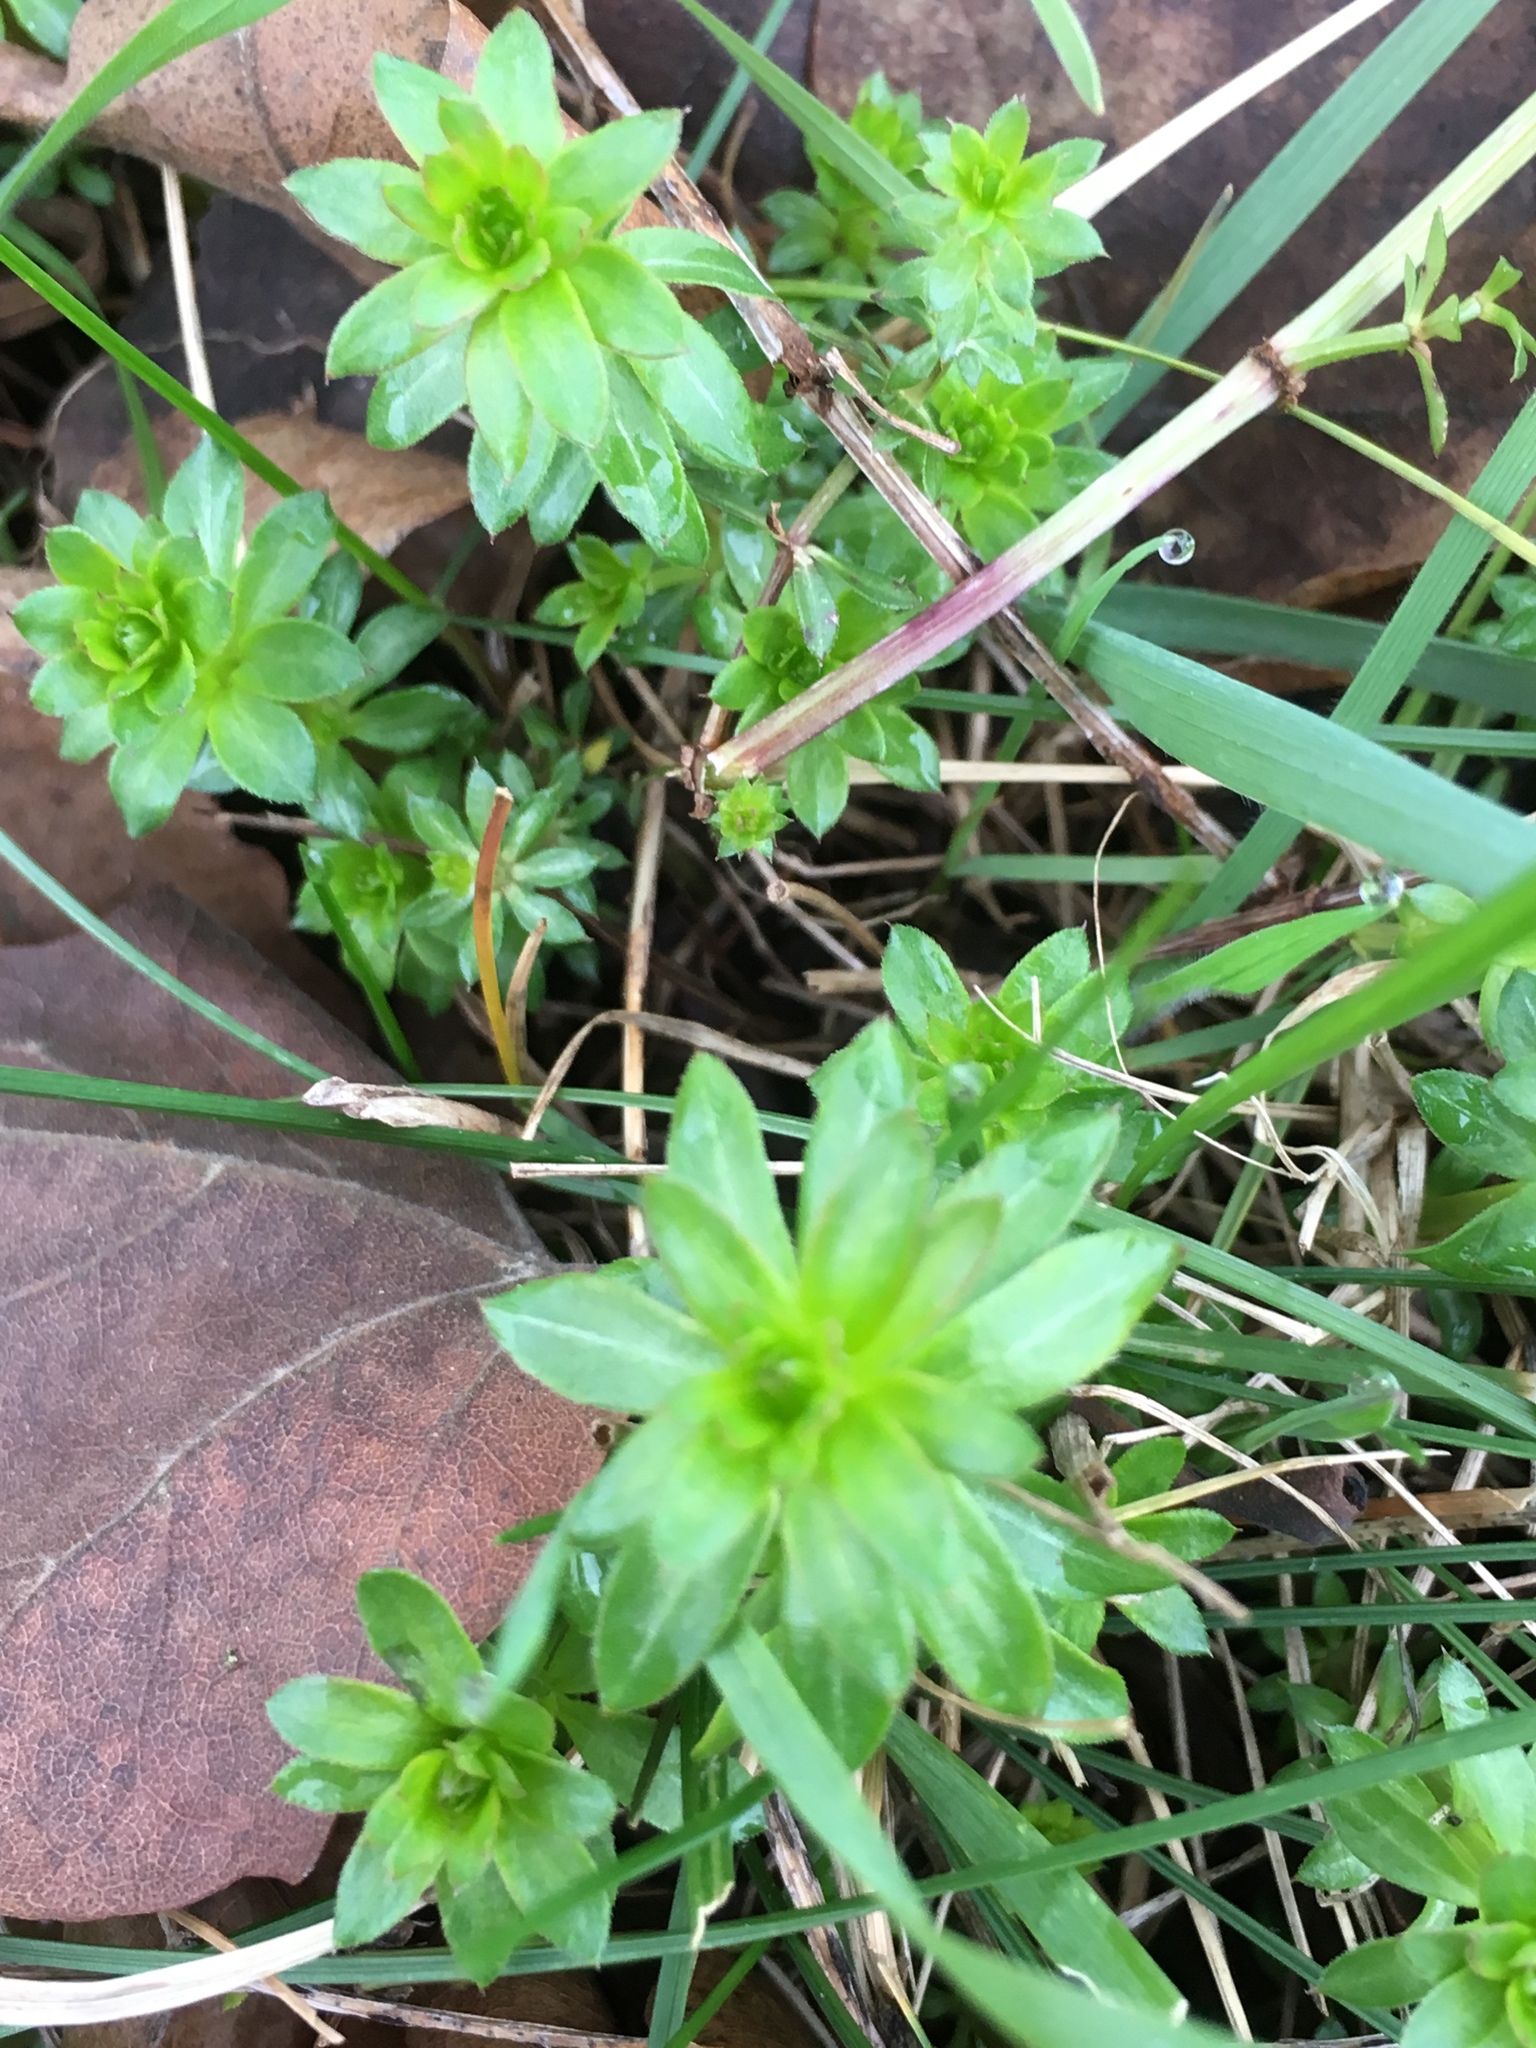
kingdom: Plantae
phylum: Tracheophyta
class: Magnoliopsida
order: Gentianales
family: Rubiaceae
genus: Galium
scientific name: Galium mollugo
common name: Hedge bedstraw
